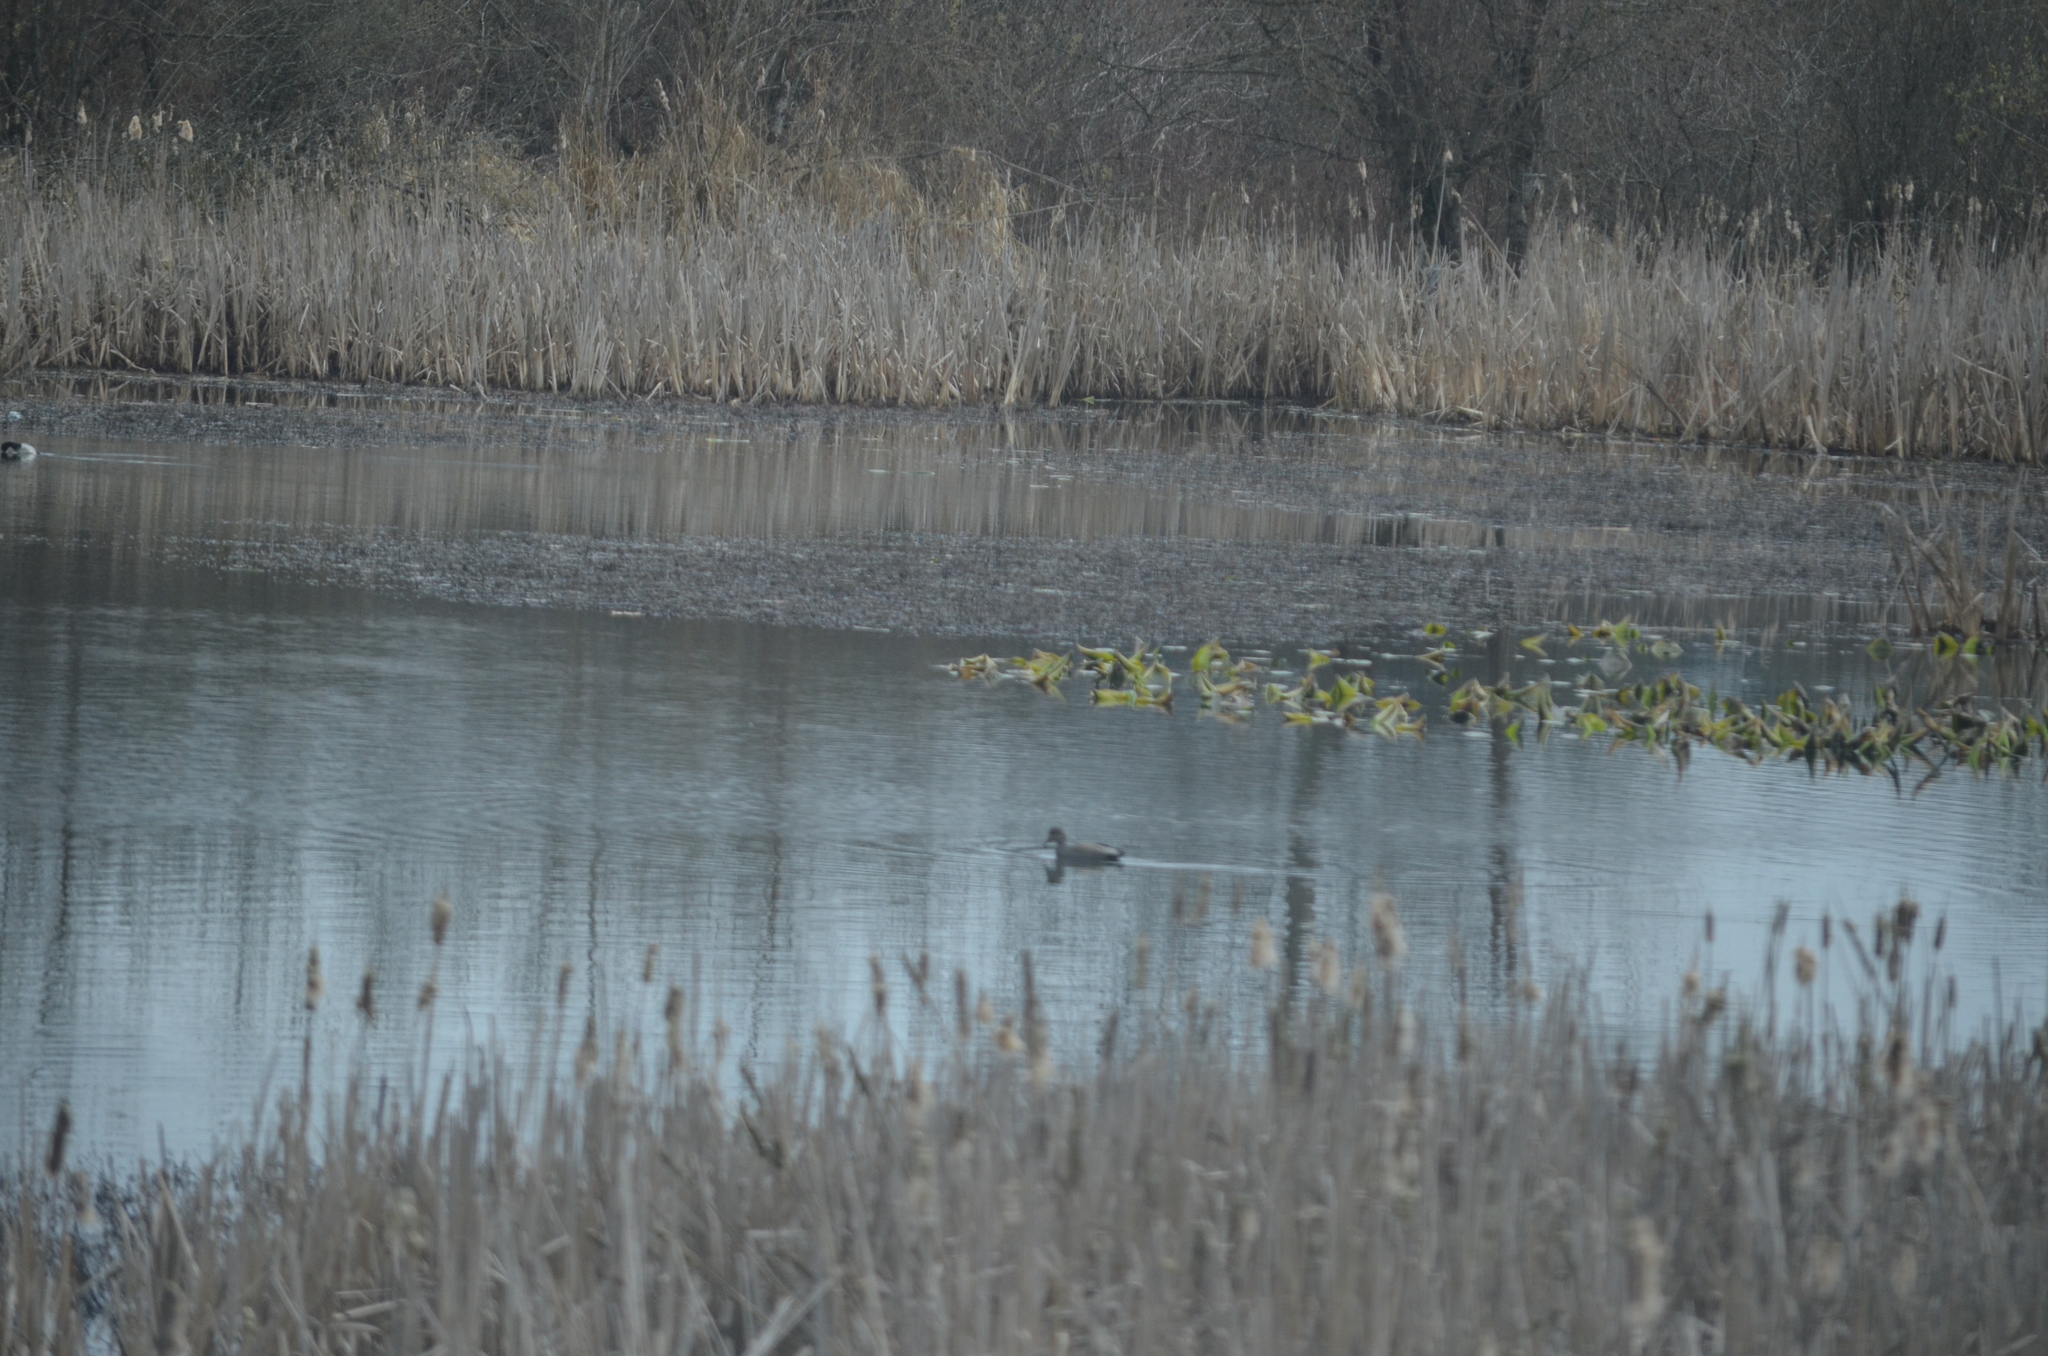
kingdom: Animalia
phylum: Chordata
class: Aves
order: Anseriformes
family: Anatidae
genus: Mareca
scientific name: Mareca strepera
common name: Gadwall
